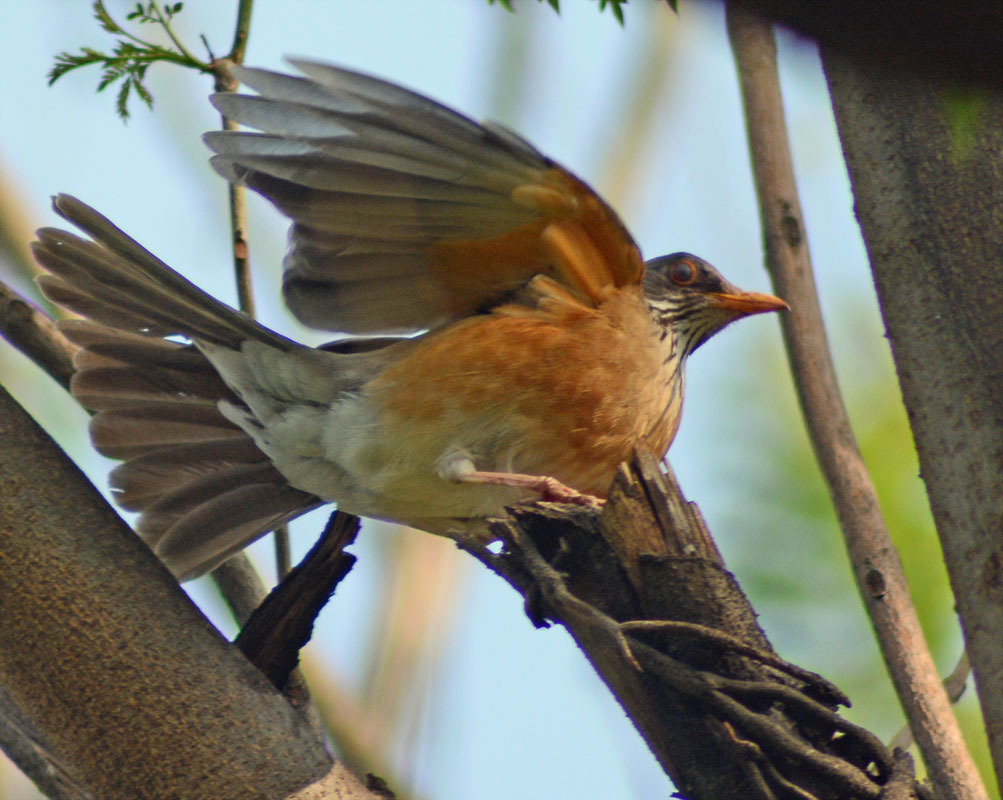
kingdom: Animalia
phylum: Chordata
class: Aves
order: Passeriformes
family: Turdidae
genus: Turdus
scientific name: Turdus rufopalliatus
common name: Rufous-backed robin
